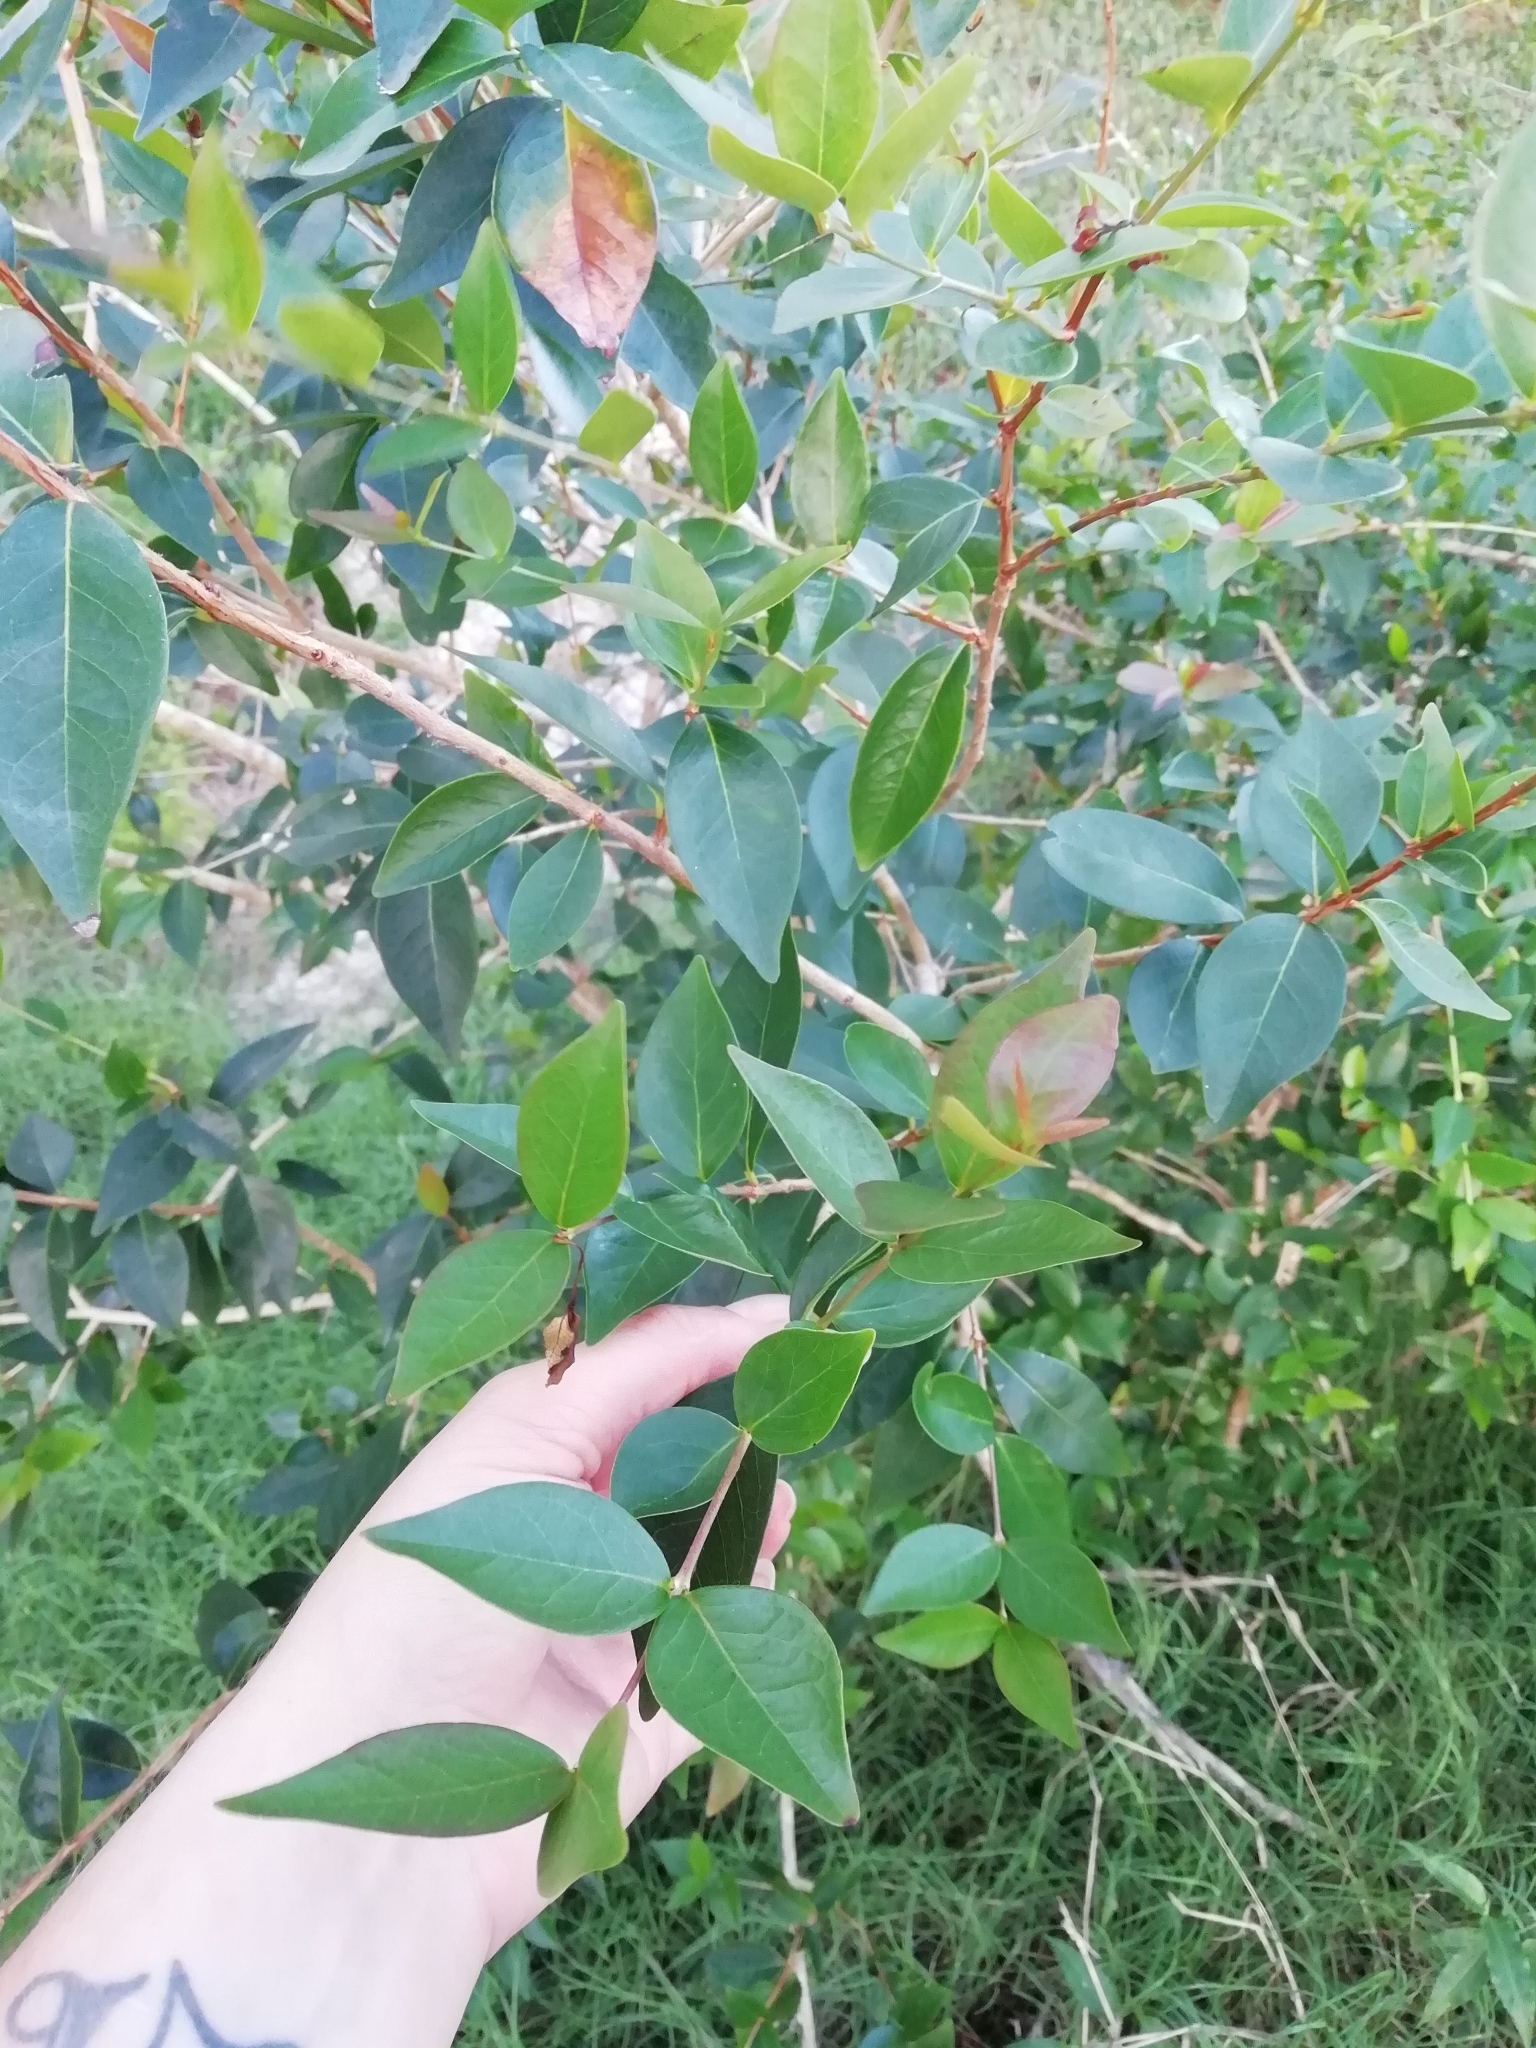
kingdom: Plantae
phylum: Tracheophyta
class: Magnoliopsida
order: Myrtales
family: Myrtaceae
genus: Eugenia
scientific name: Eugenia uniflora
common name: Surinam cherry
